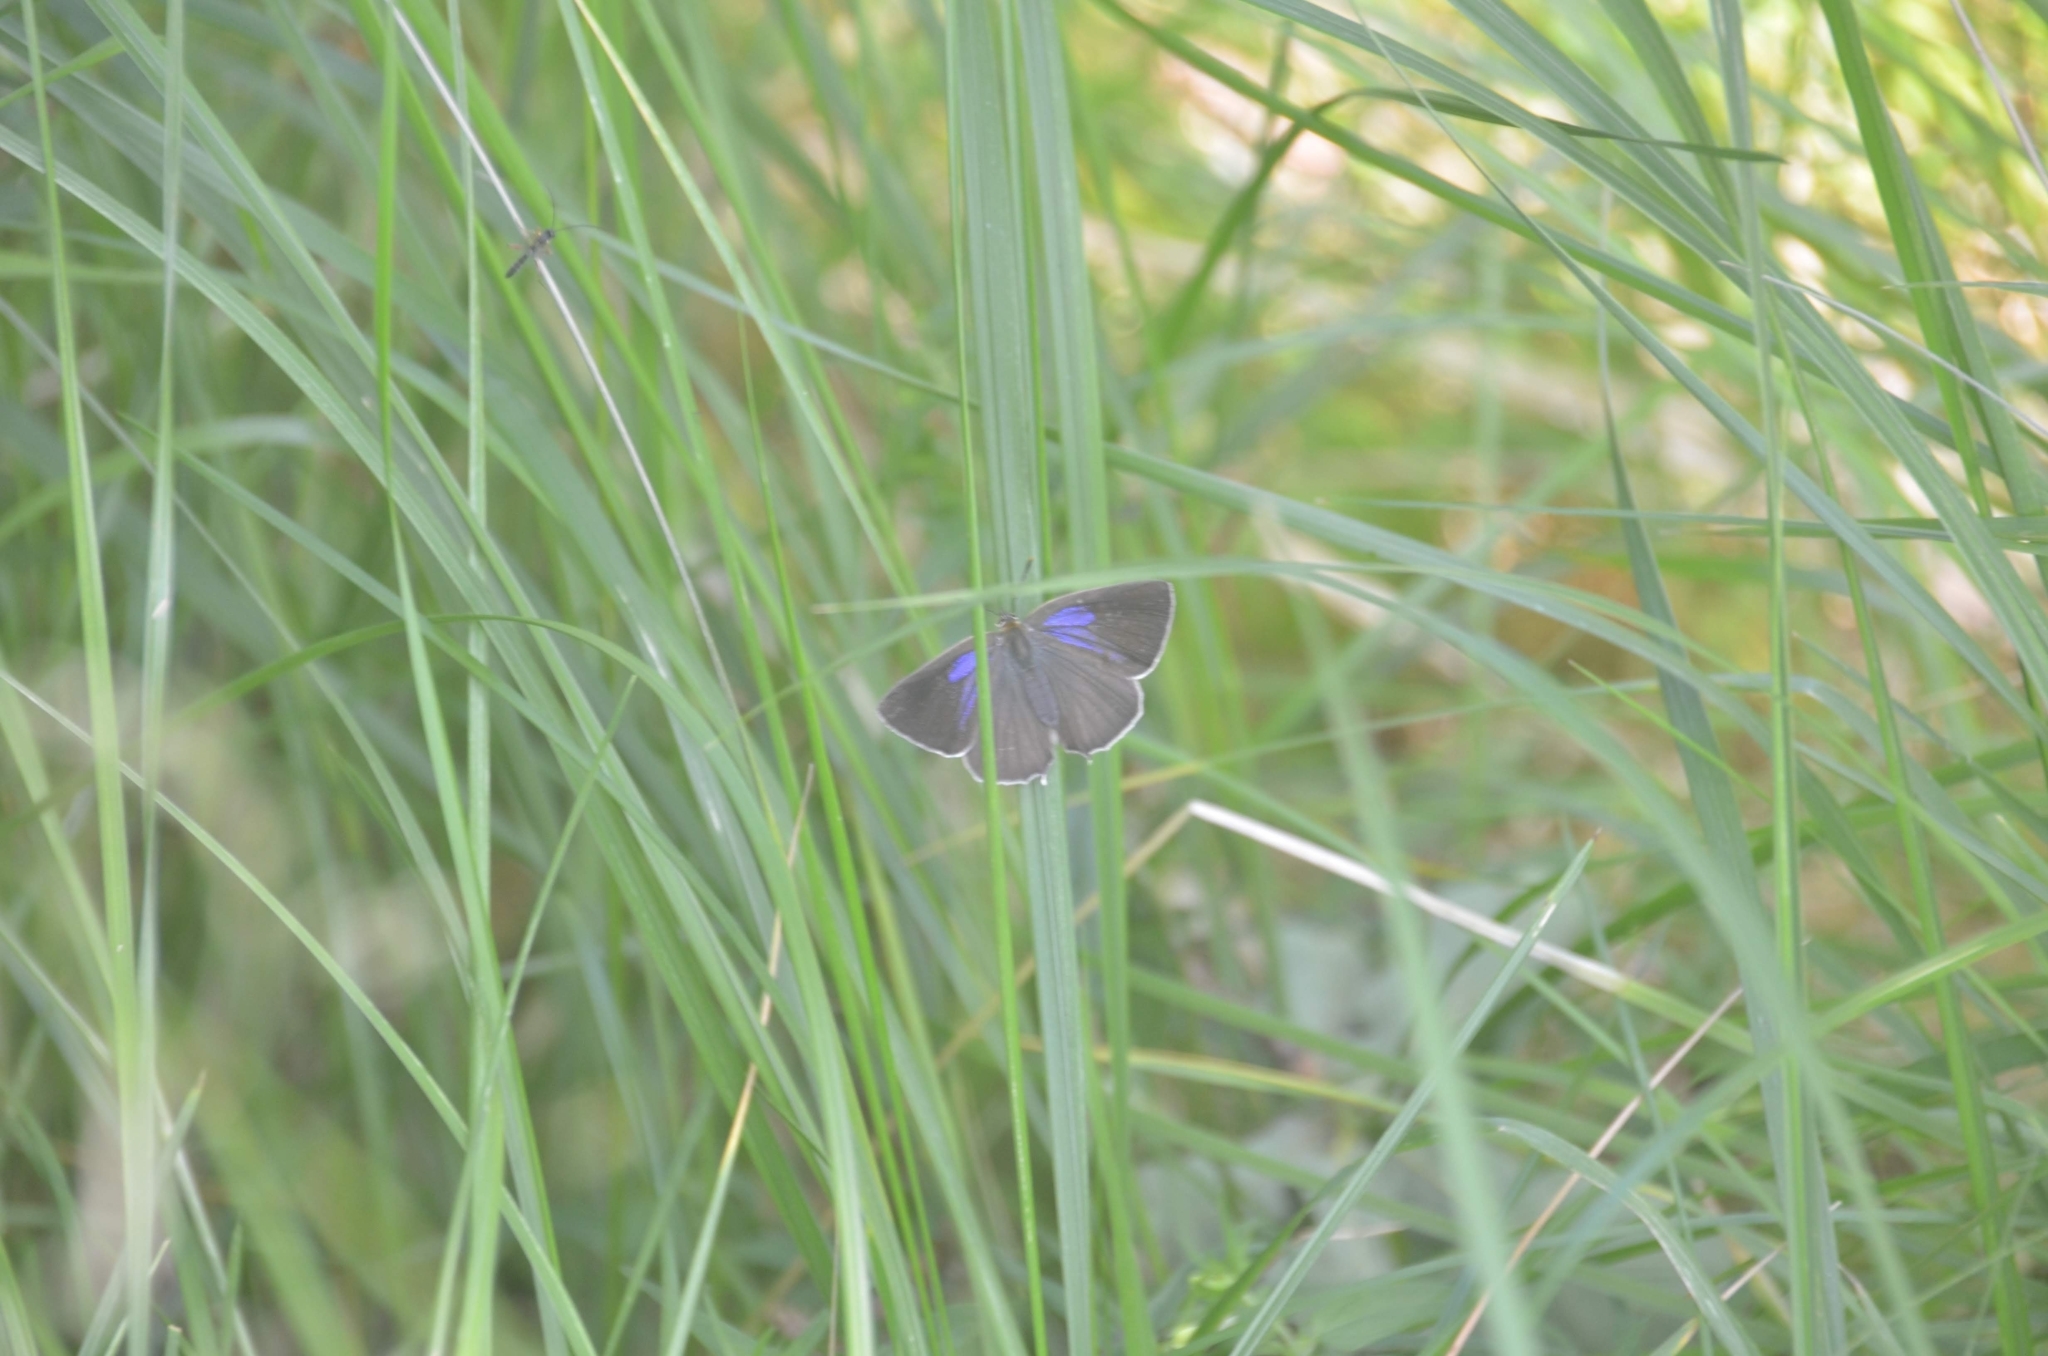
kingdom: Animalia
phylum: Arthropoda
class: Insecta
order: Lepidoptera
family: Lycaenidae
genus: Quercusia
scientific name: Quercusia quercus
